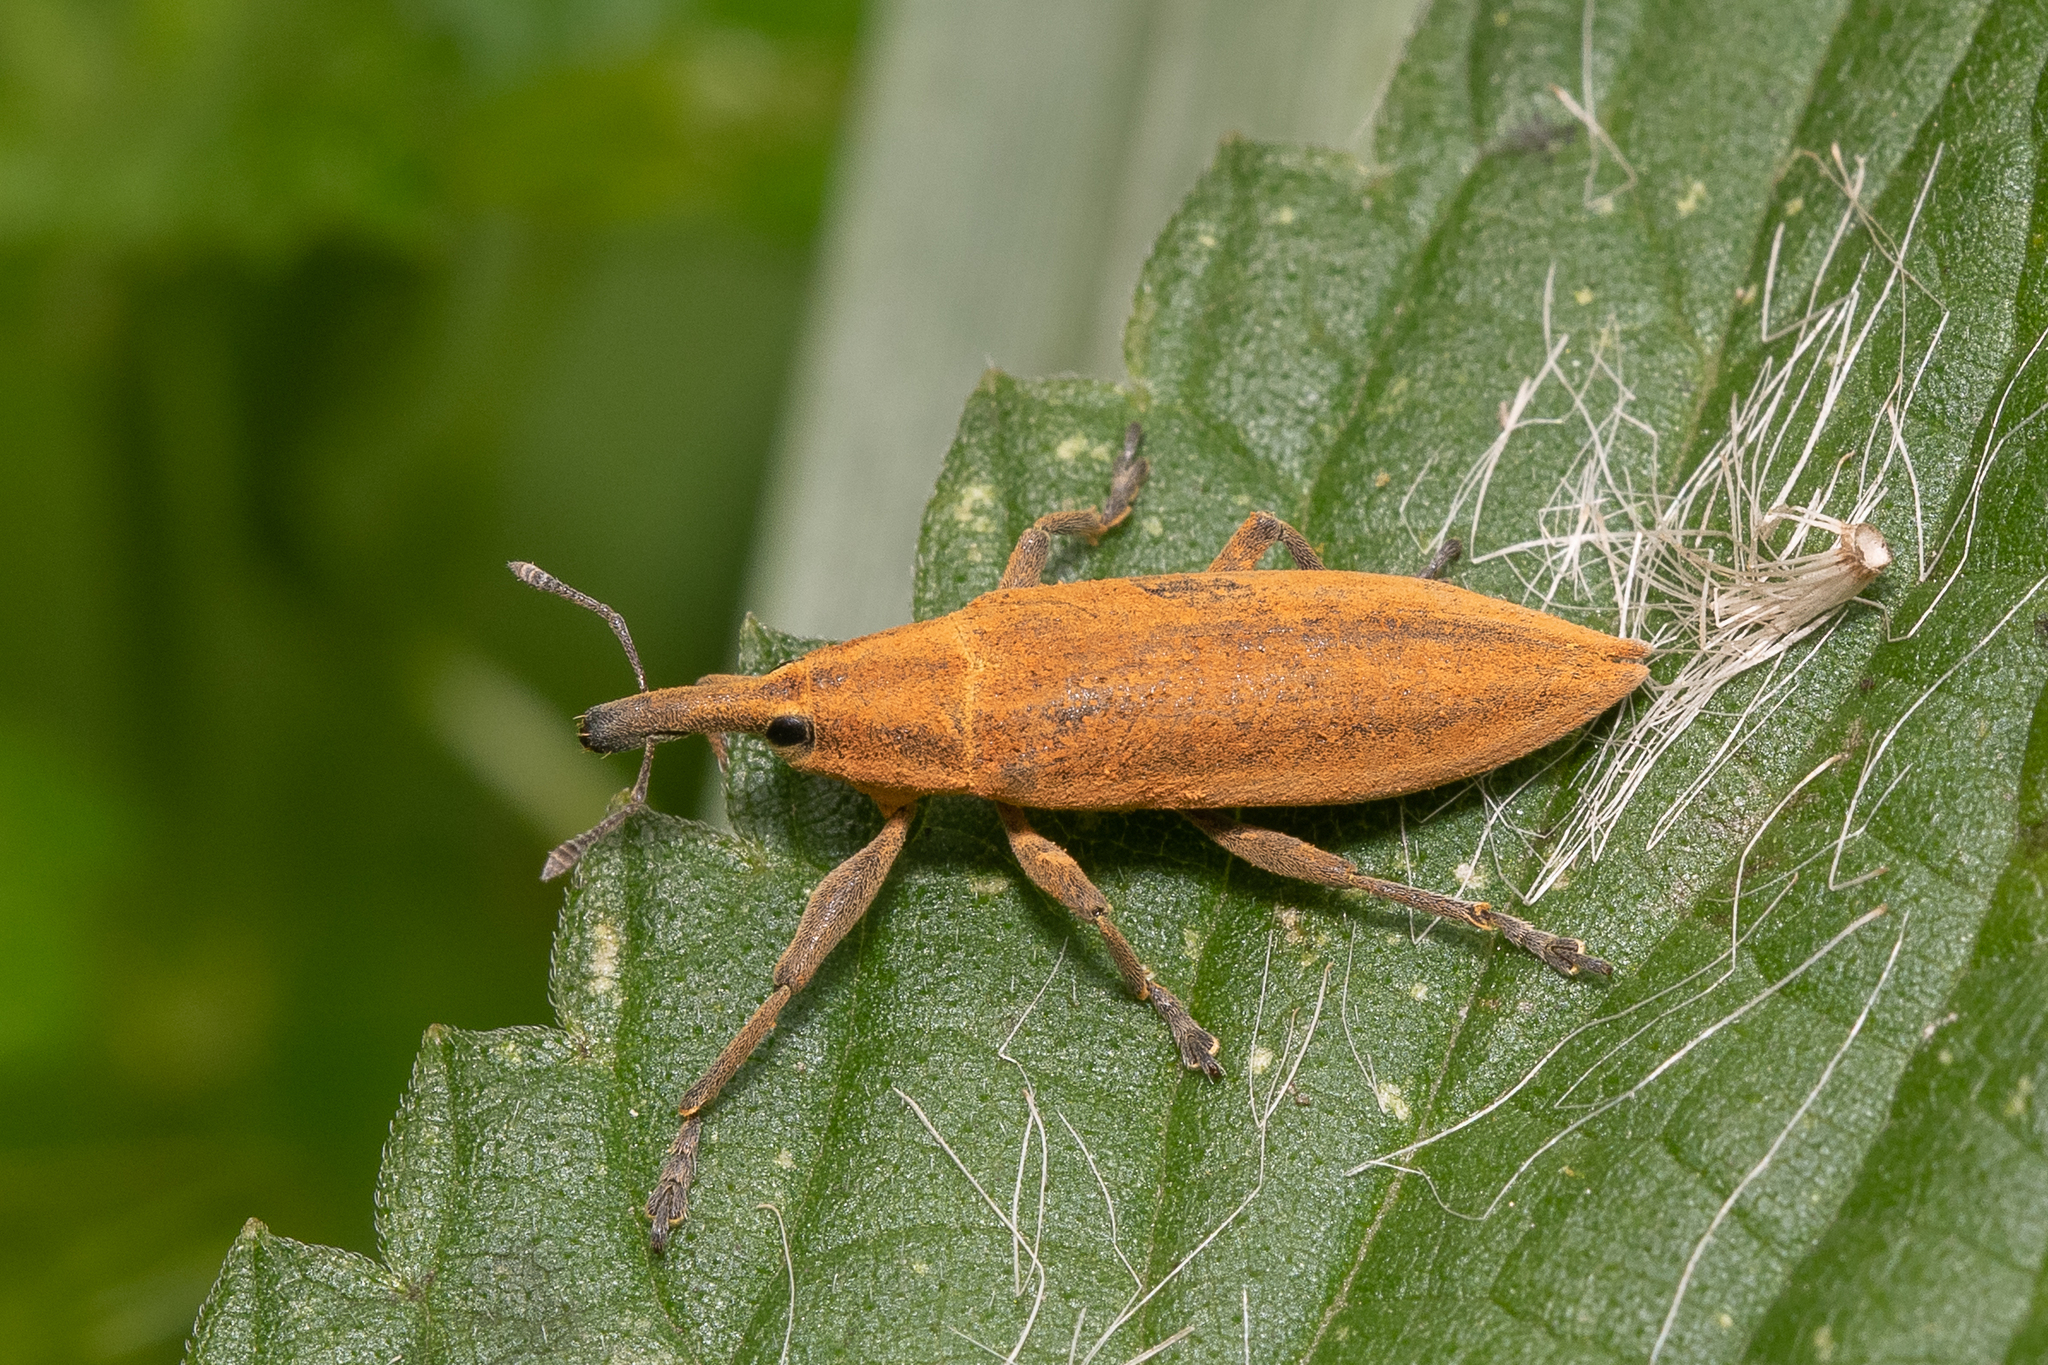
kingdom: Animalia
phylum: Arthropoda
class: Insecta
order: Coleoptera
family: Curculionidae
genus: Lixus
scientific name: Lixus iridis
